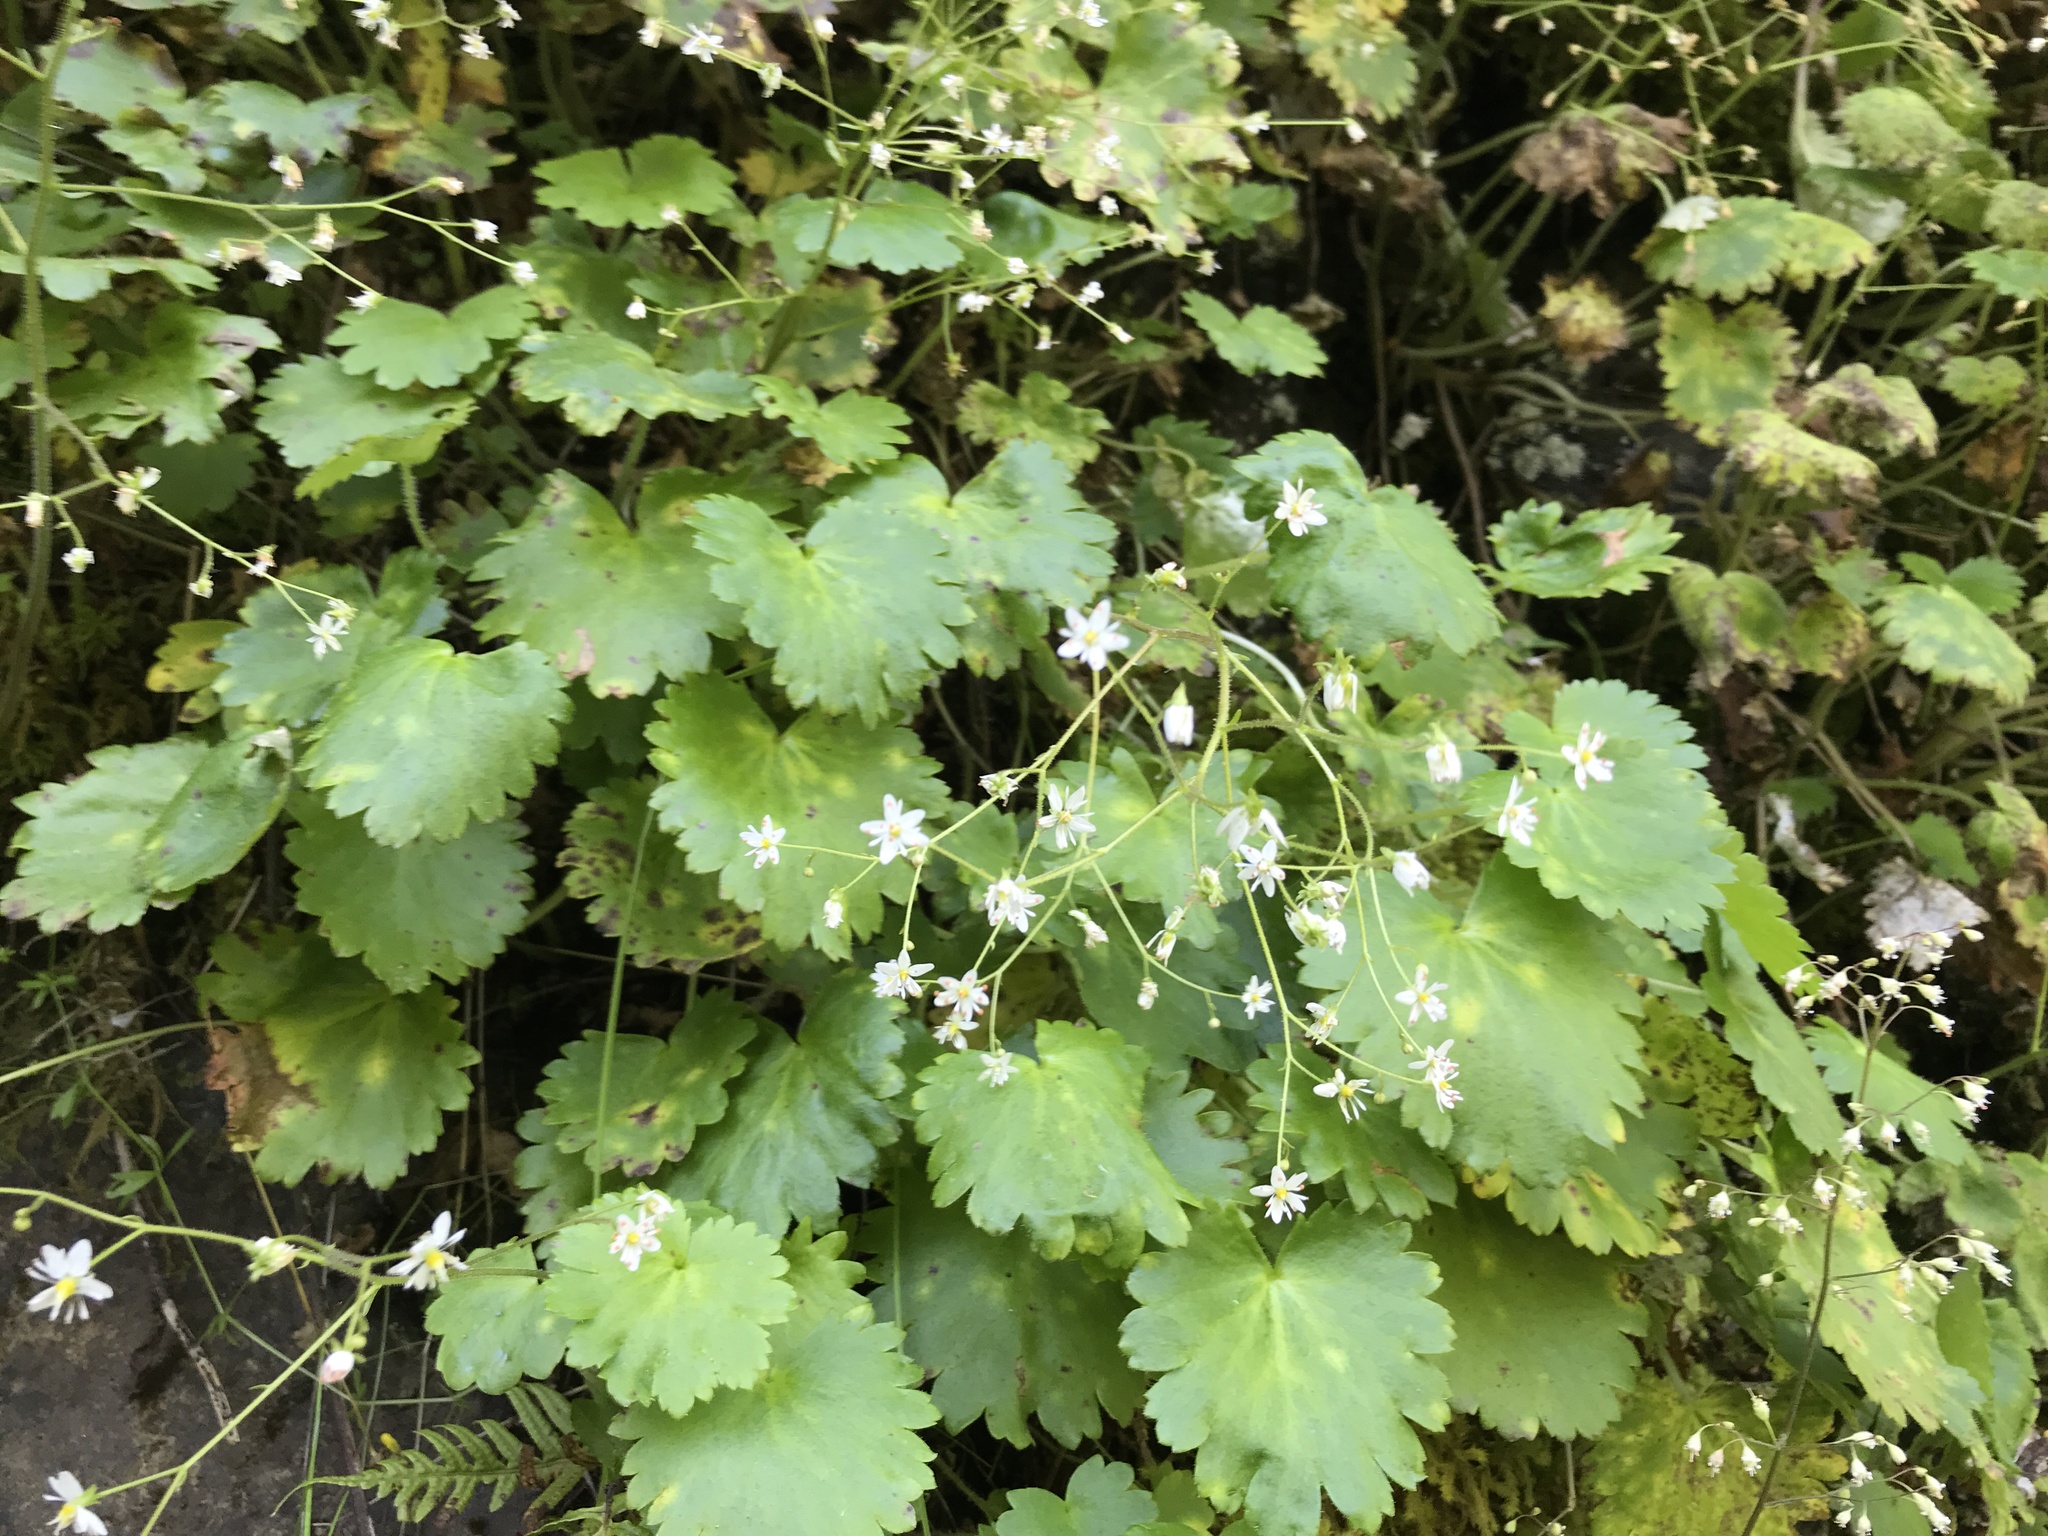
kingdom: Plantae
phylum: Tracheophyta
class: Magnoliopsida
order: Saxifragales
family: Saxifragaceae
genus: Micranthes
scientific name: Micranthes mertensiana
